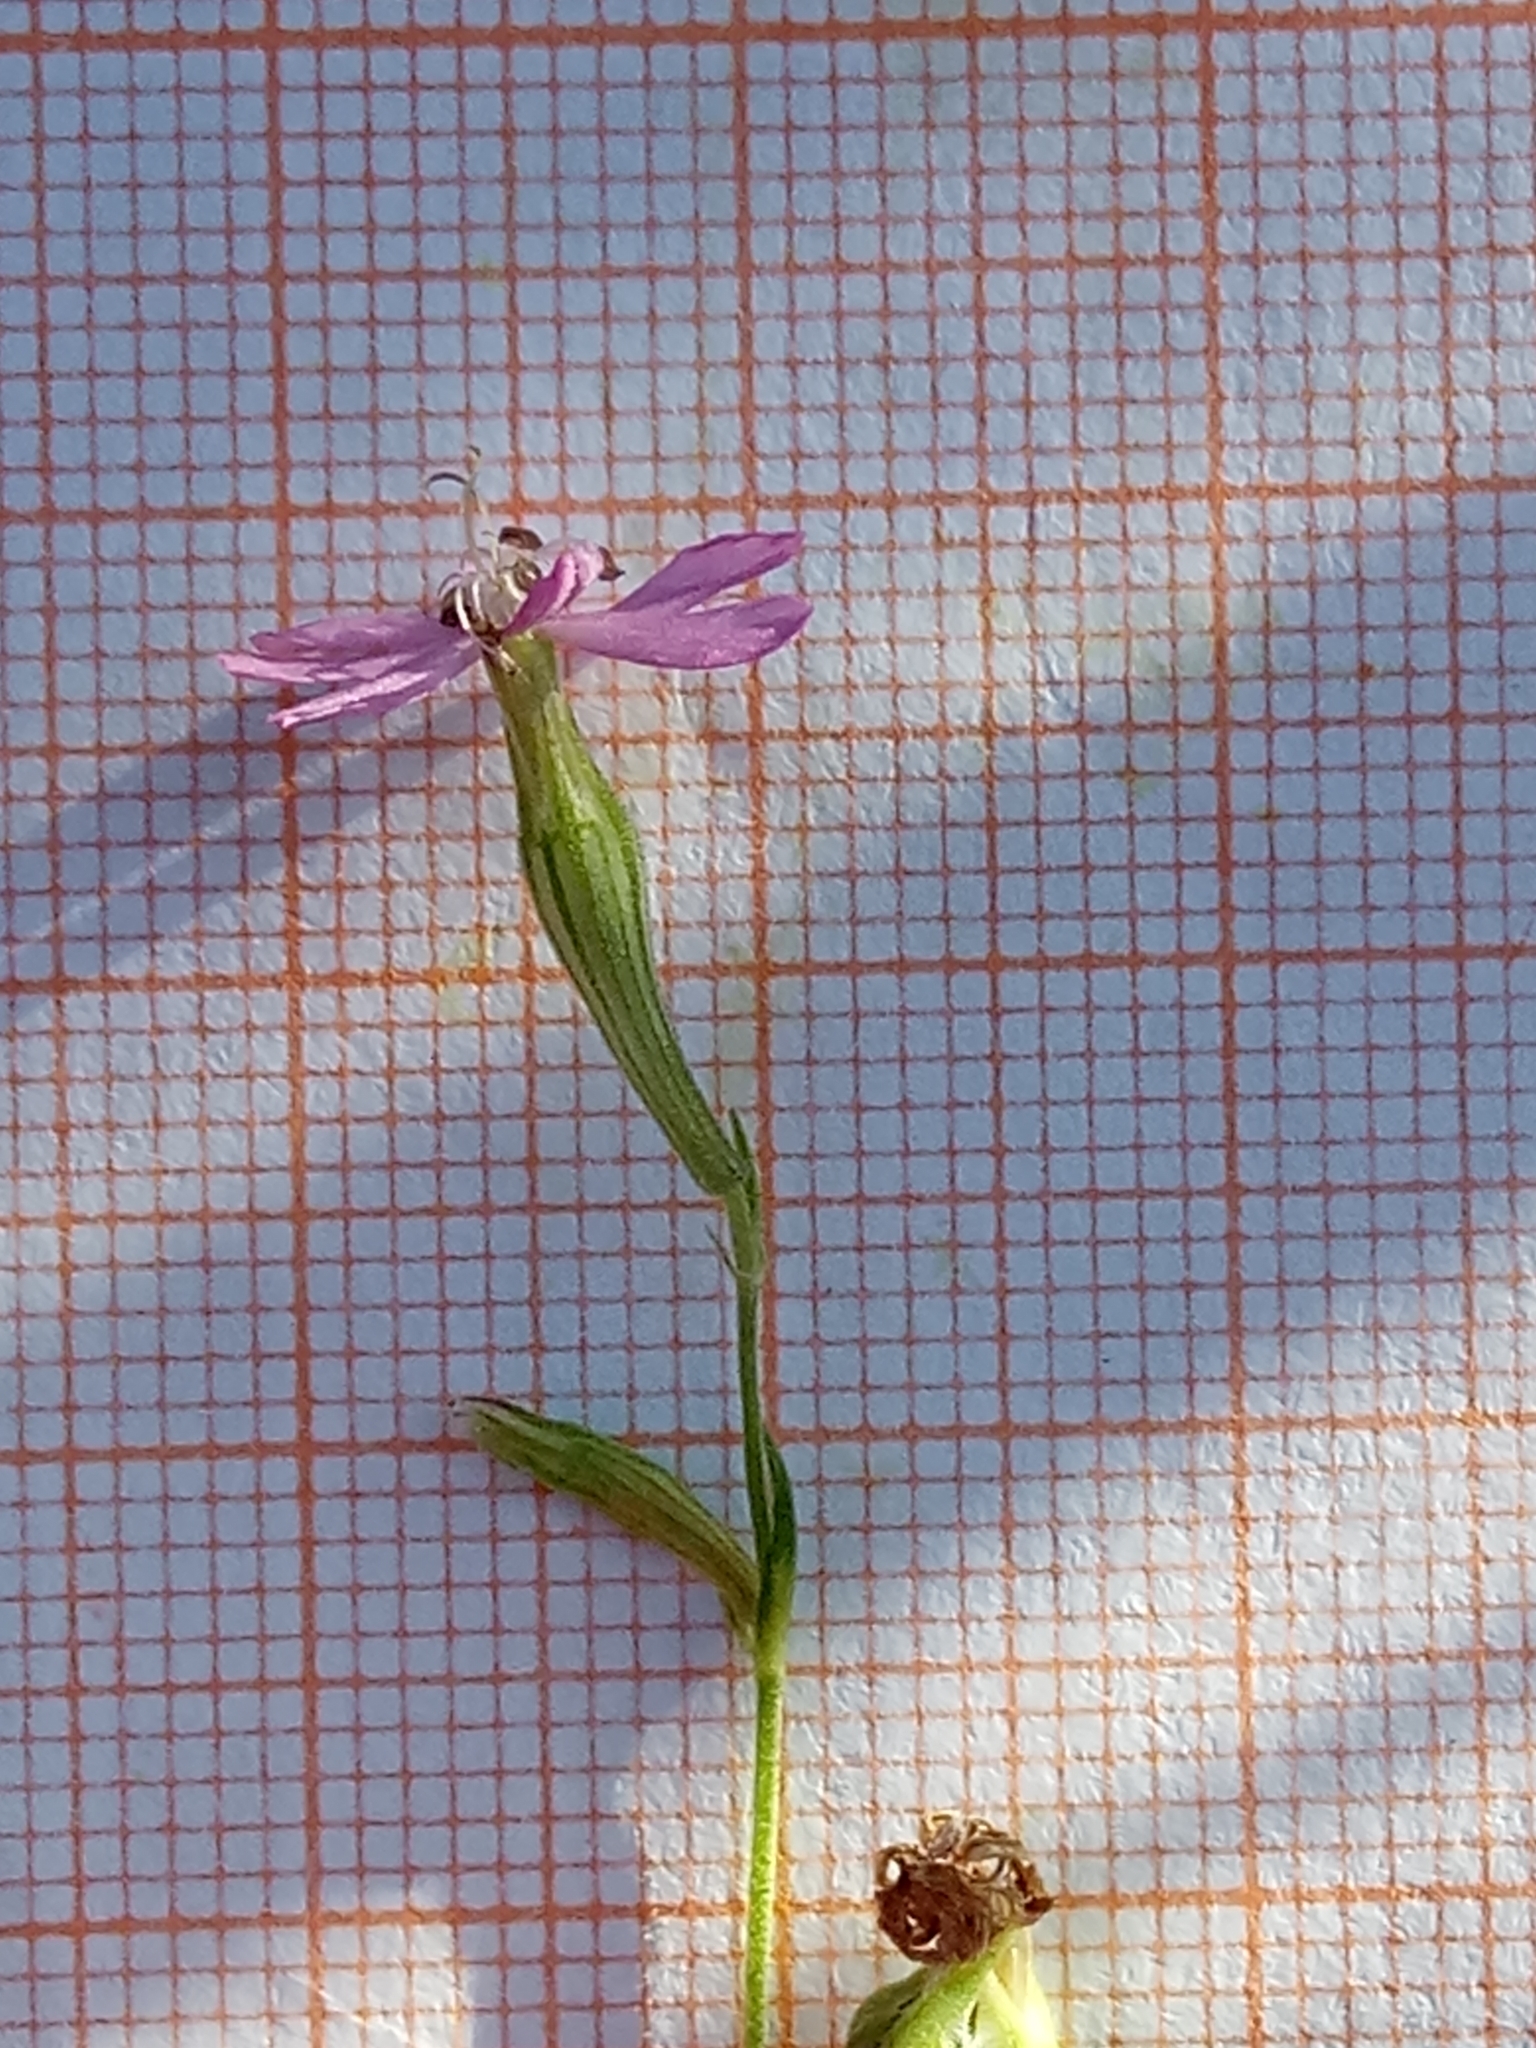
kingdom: Plantae
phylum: Tracheophyta
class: Magnoliopsida
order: Caryophyllales
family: Caryophyllaceae
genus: Silene
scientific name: Silene colorata
